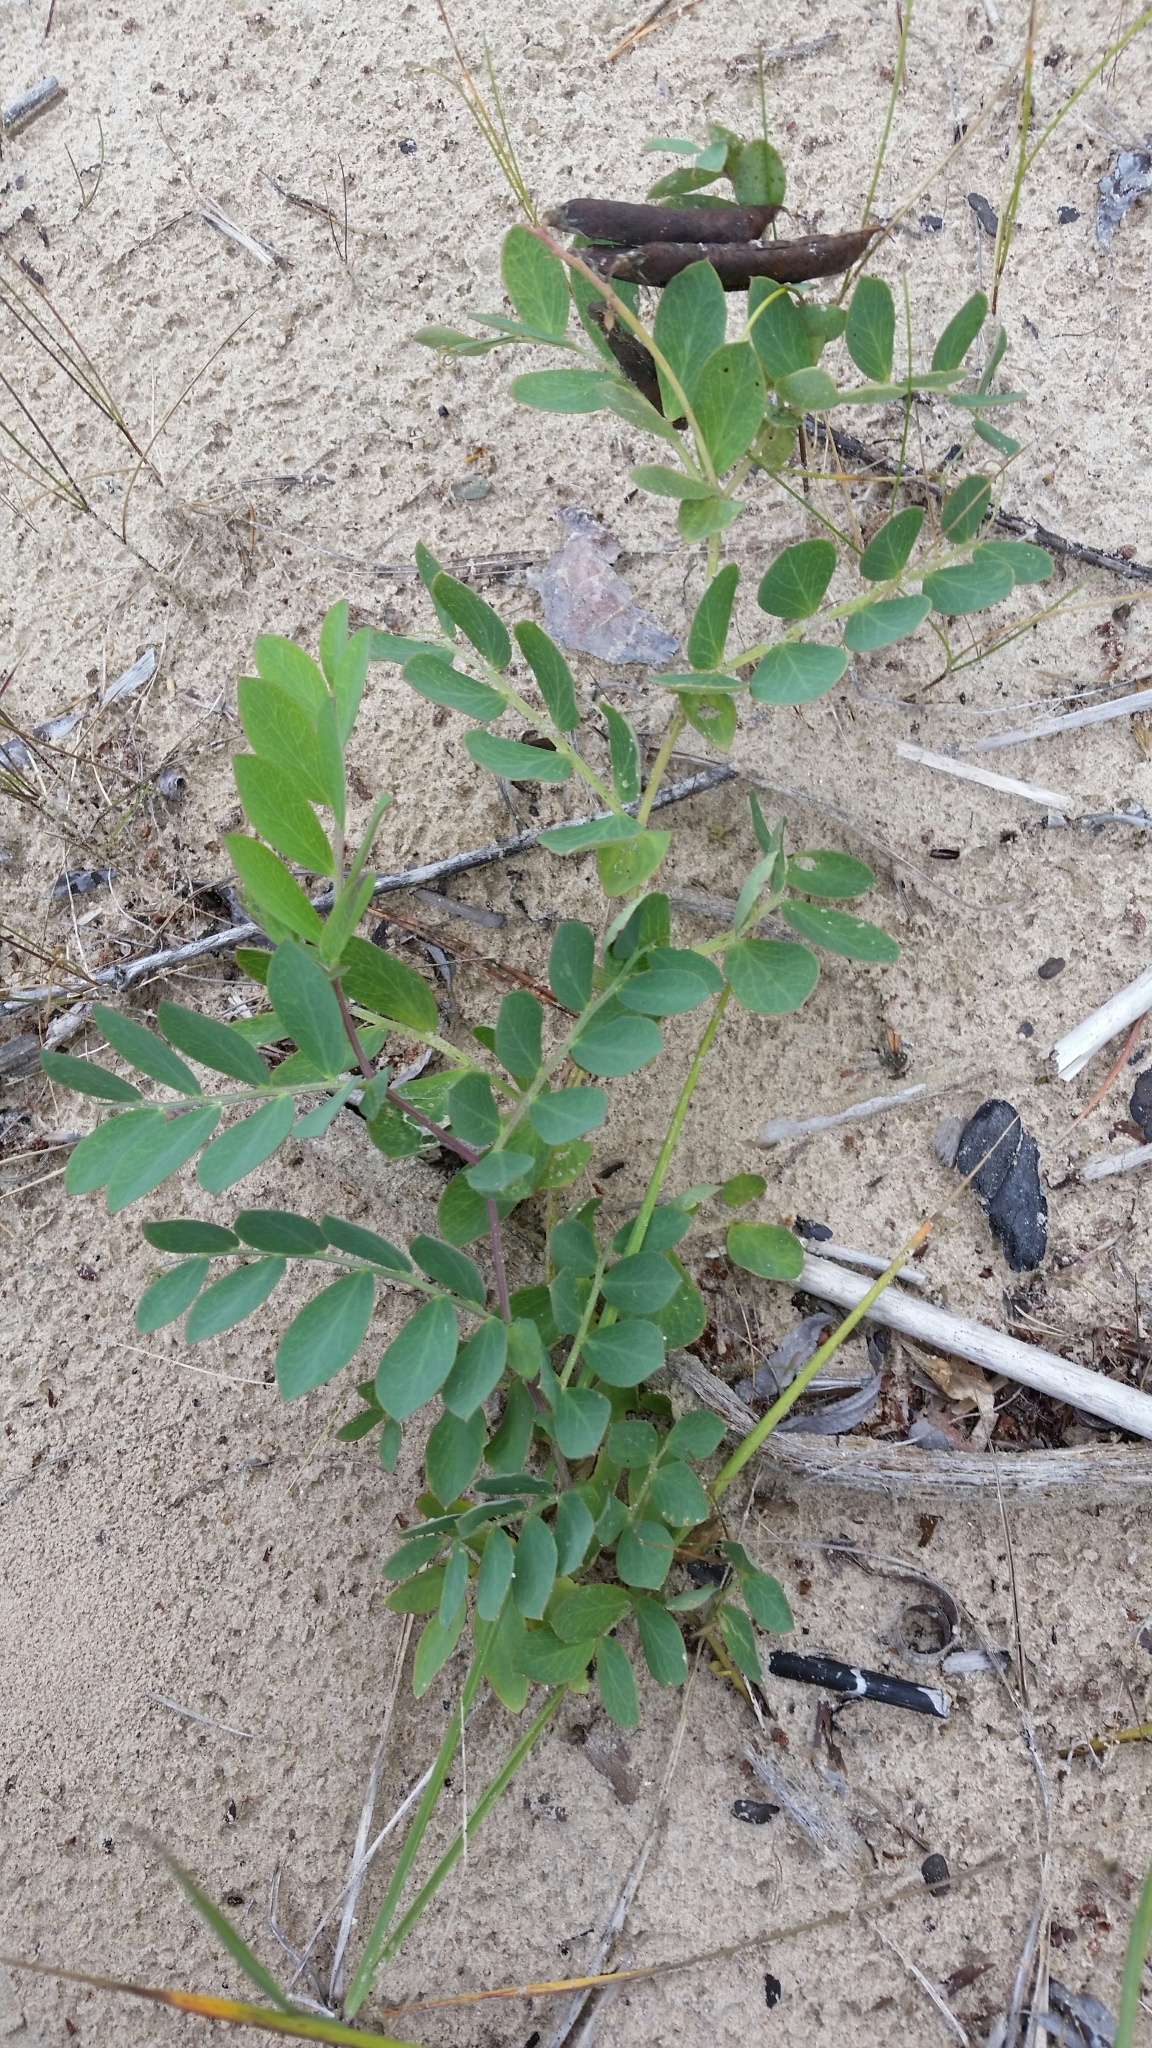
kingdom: Plantae
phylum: Tracheophyta
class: Magnoliopsida
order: Fabales
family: Fabaceae
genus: Lathyrus
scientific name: Lathyrus japonicus
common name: Sea pea
